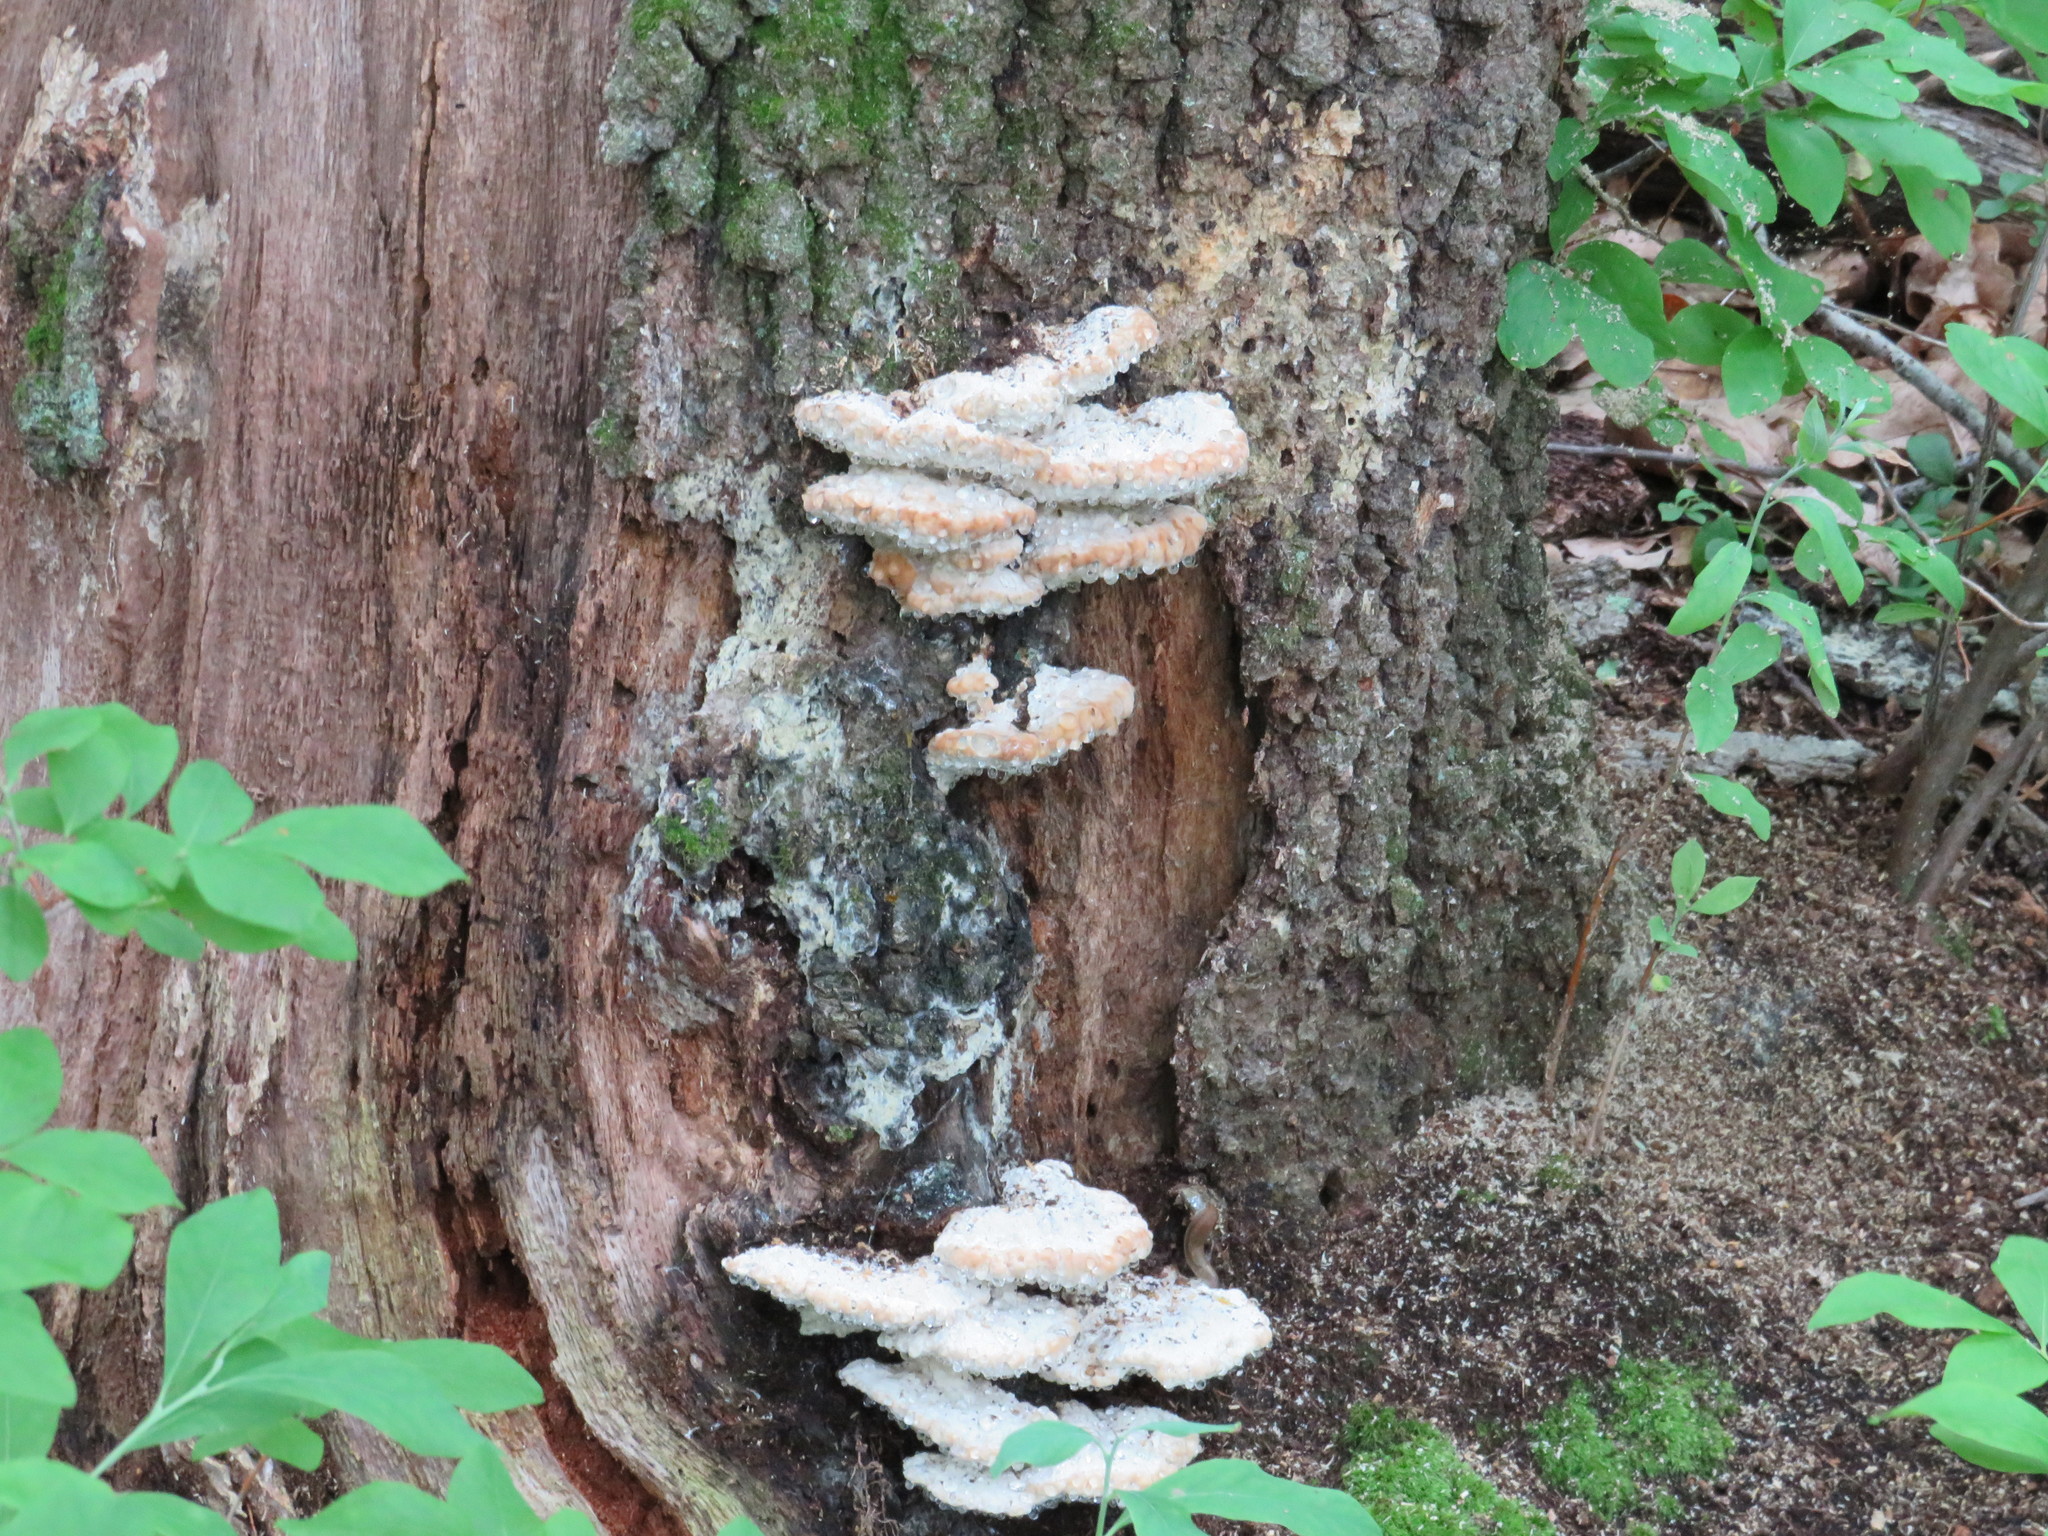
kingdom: Fungi
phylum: Basidiomycota
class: Agaricomycetes
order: Polyporales
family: Fomitopsidaceae
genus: Niveoporofomes
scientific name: Niveoporofomes spraguei
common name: Green cheese polypore
